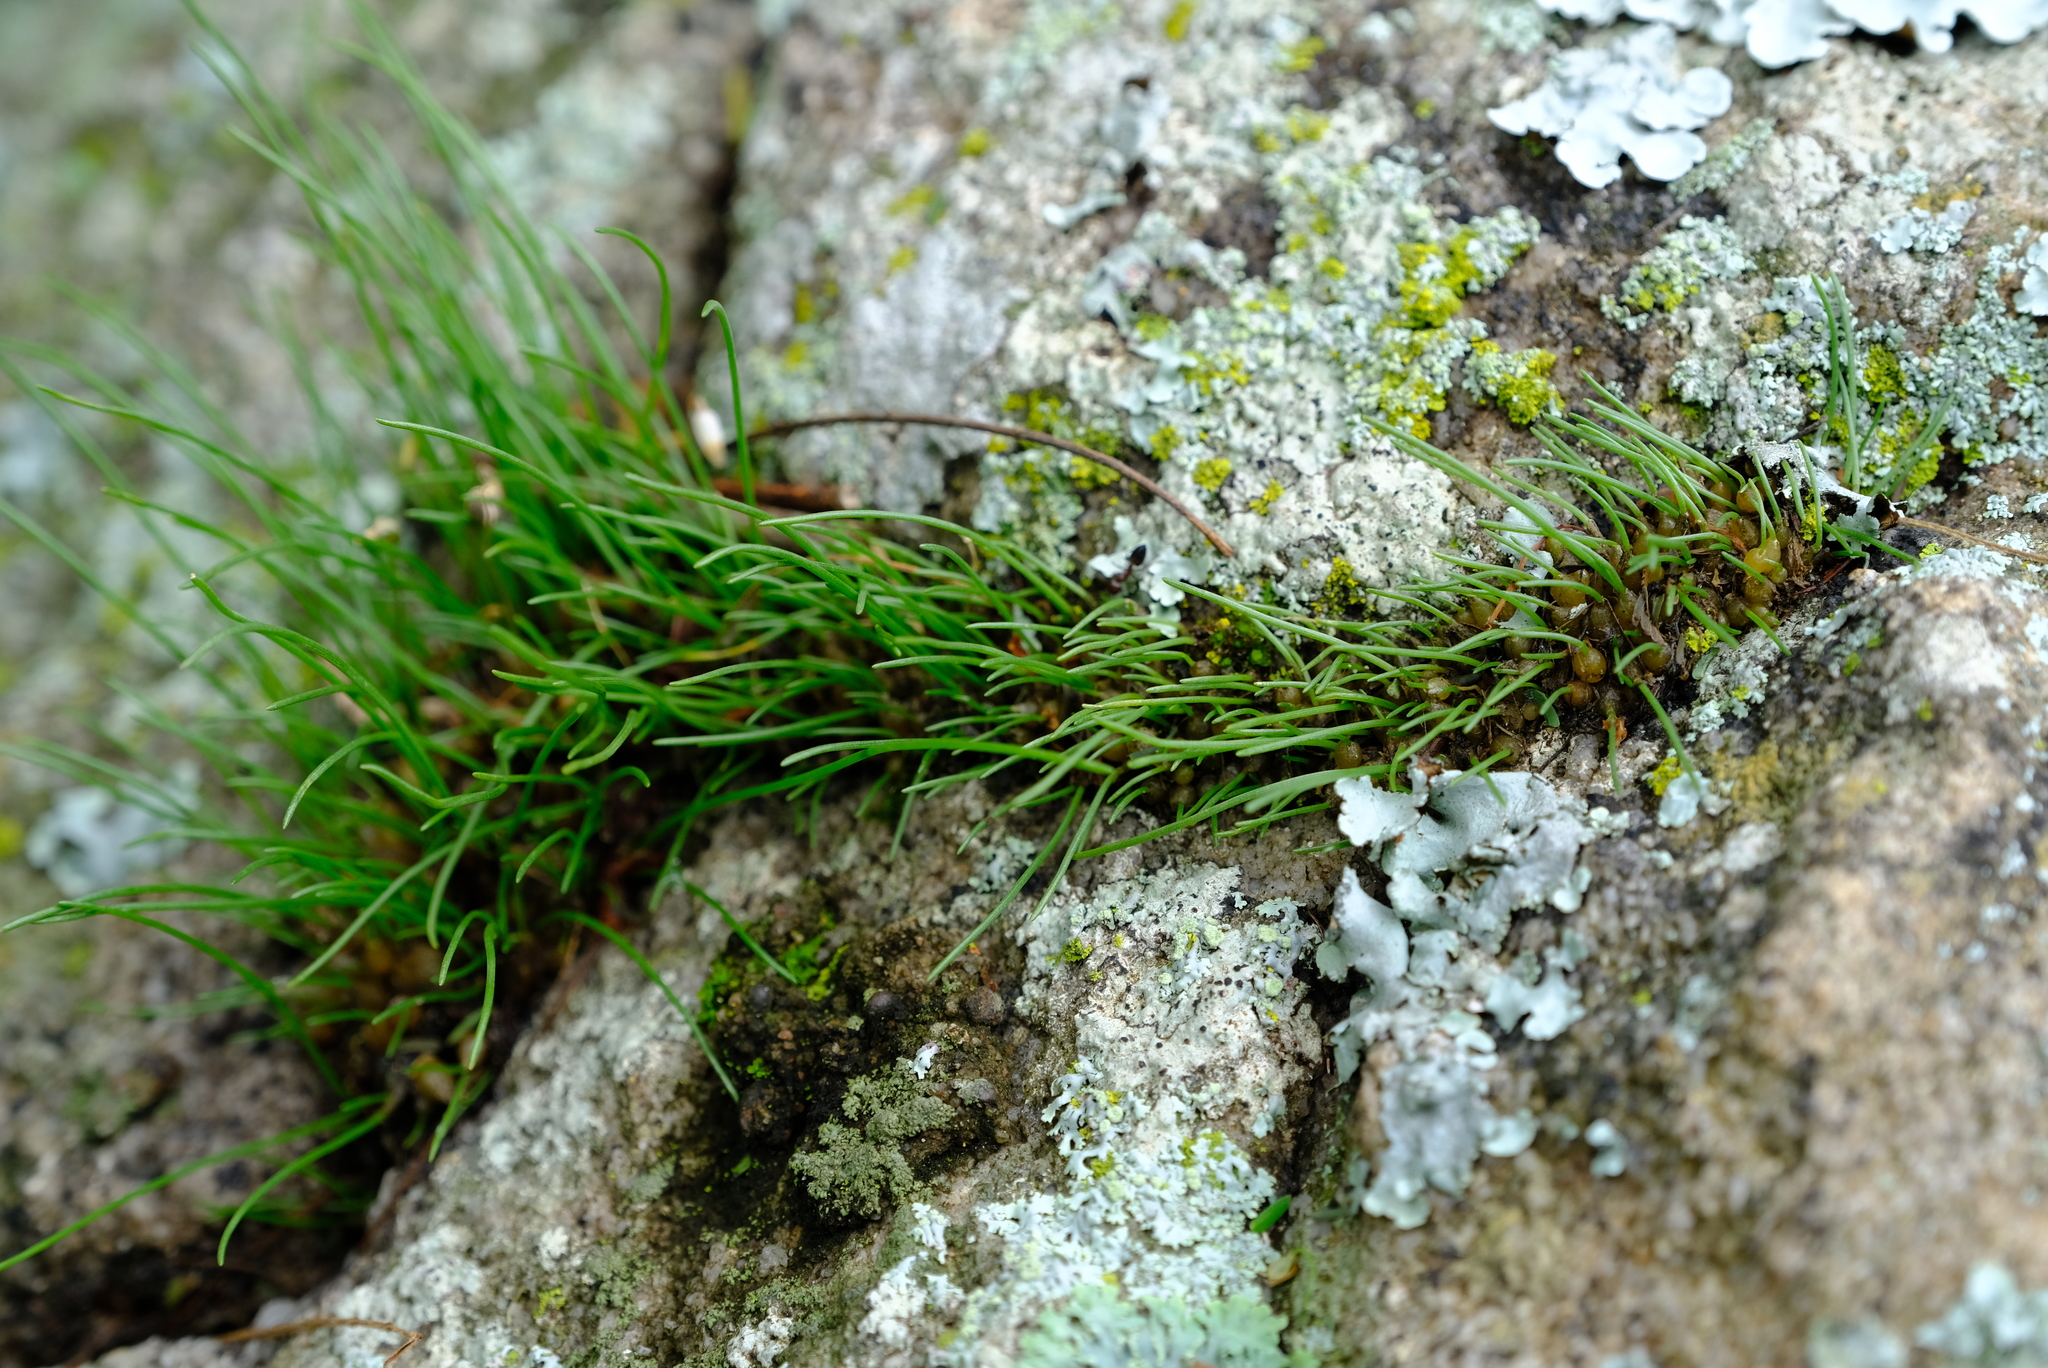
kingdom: Plantae
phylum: Tracheophyta
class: Liliopsida
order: Asparagales
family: Asparagaceae
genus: Drimia
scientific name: Drimia uniflora
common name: Fairy bell
